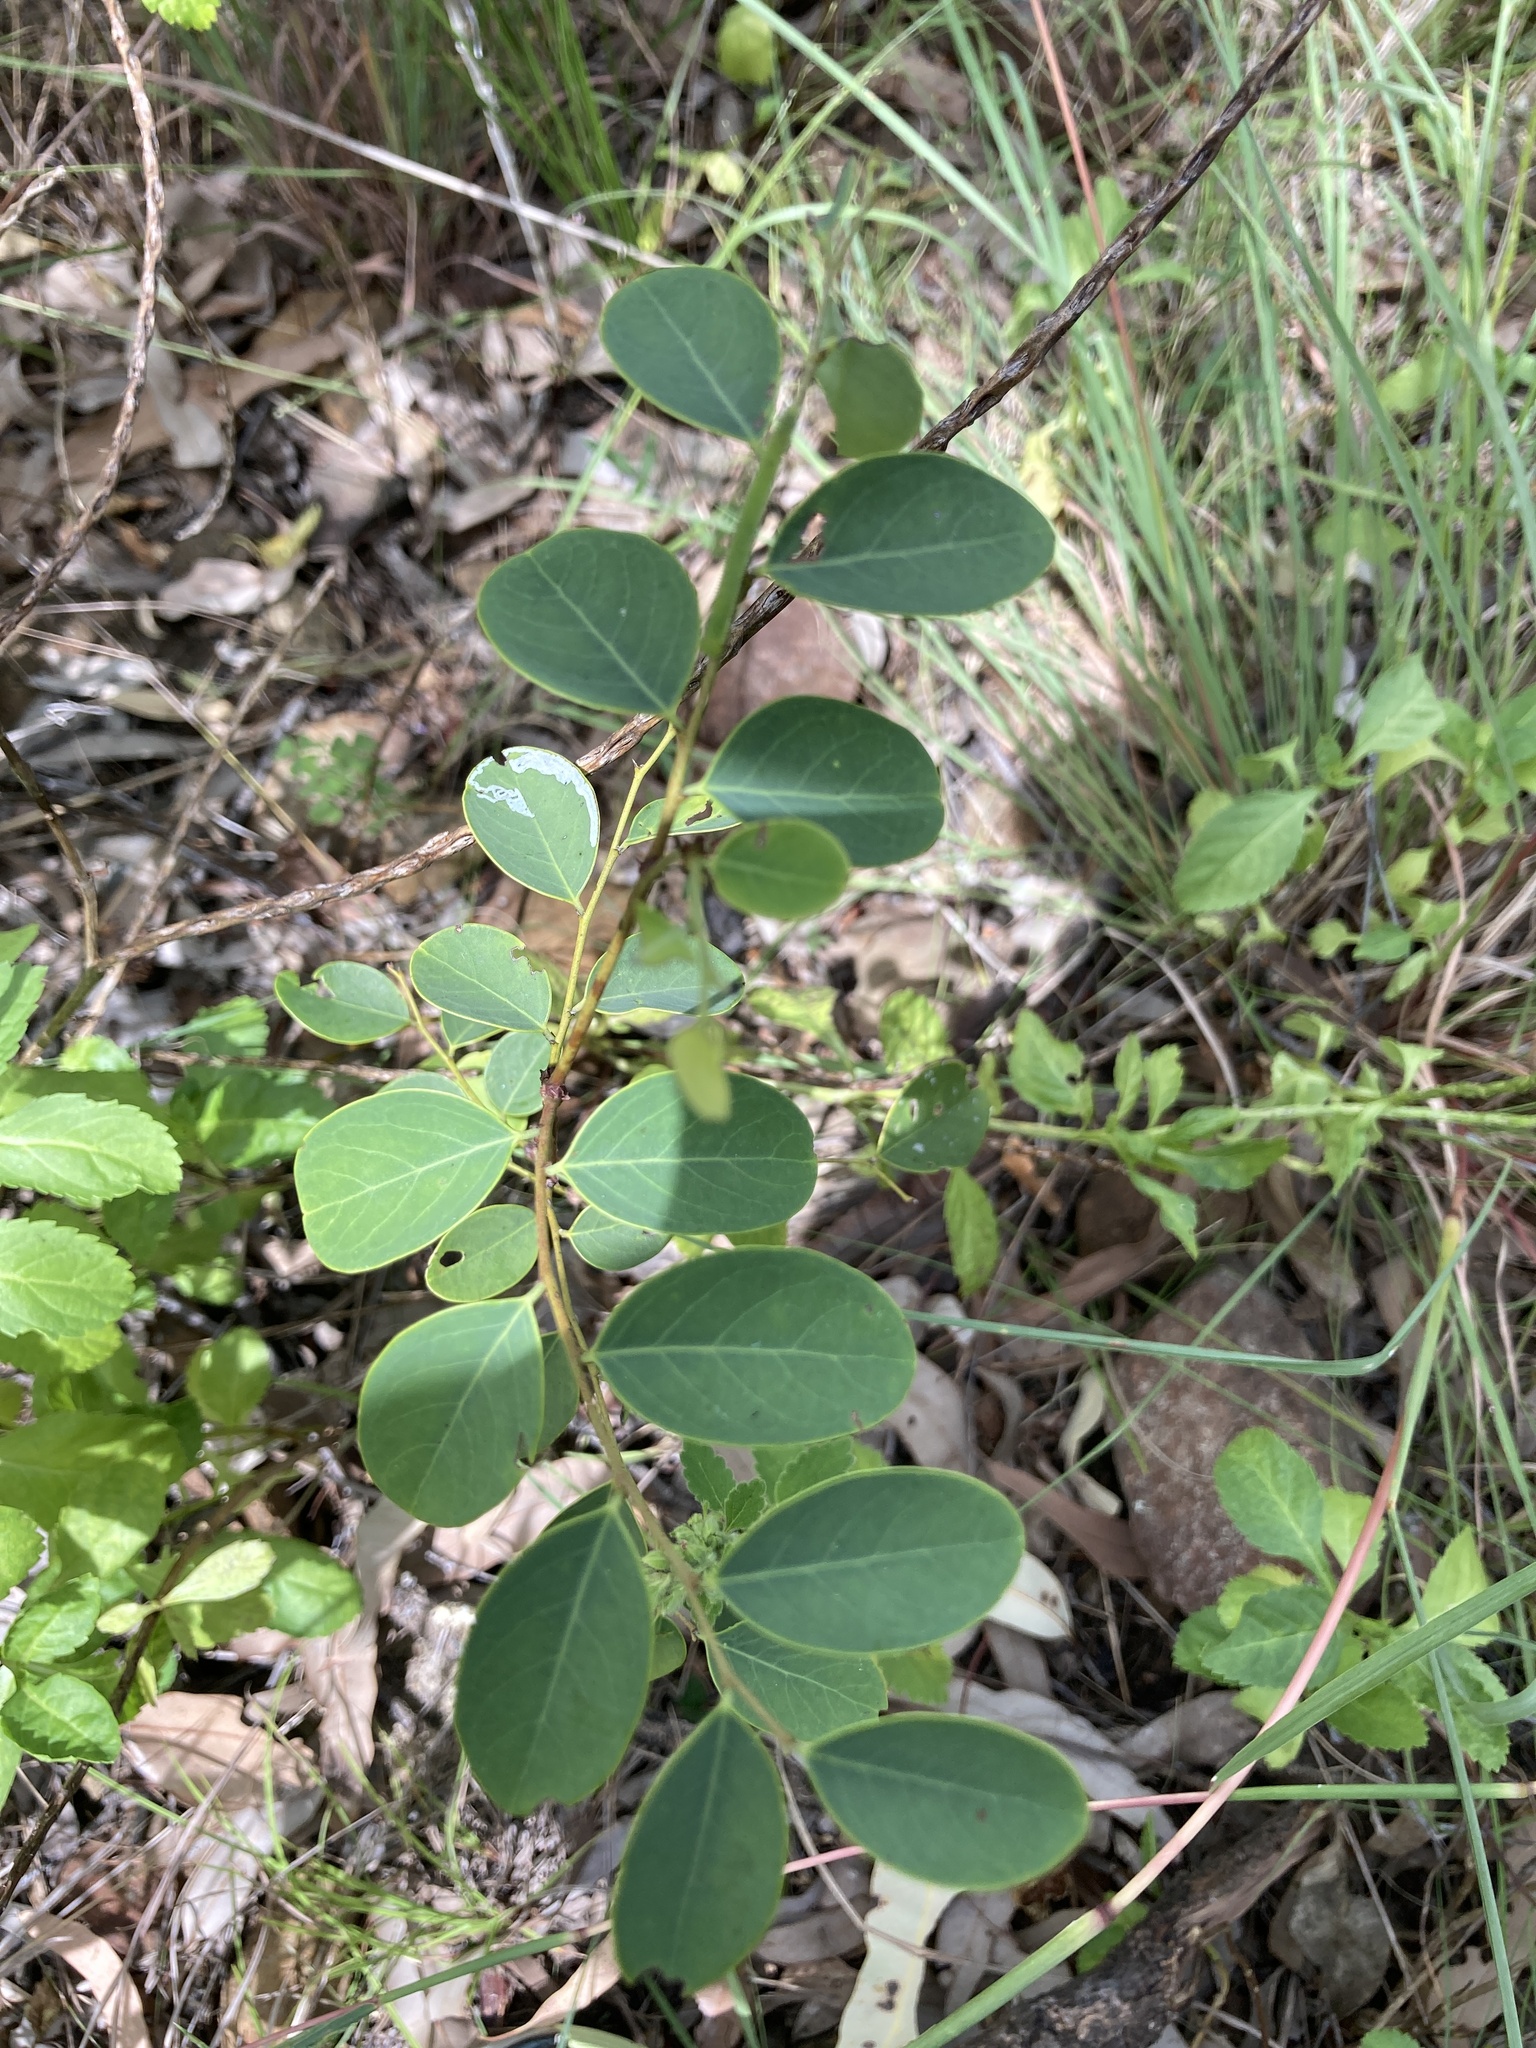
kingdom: Plantae
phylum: Tracheophyta
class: Magnoliopsida
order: Malpighiales
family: Phyllanthaceae
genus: Breynia
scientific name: Breynia oblongifolia
